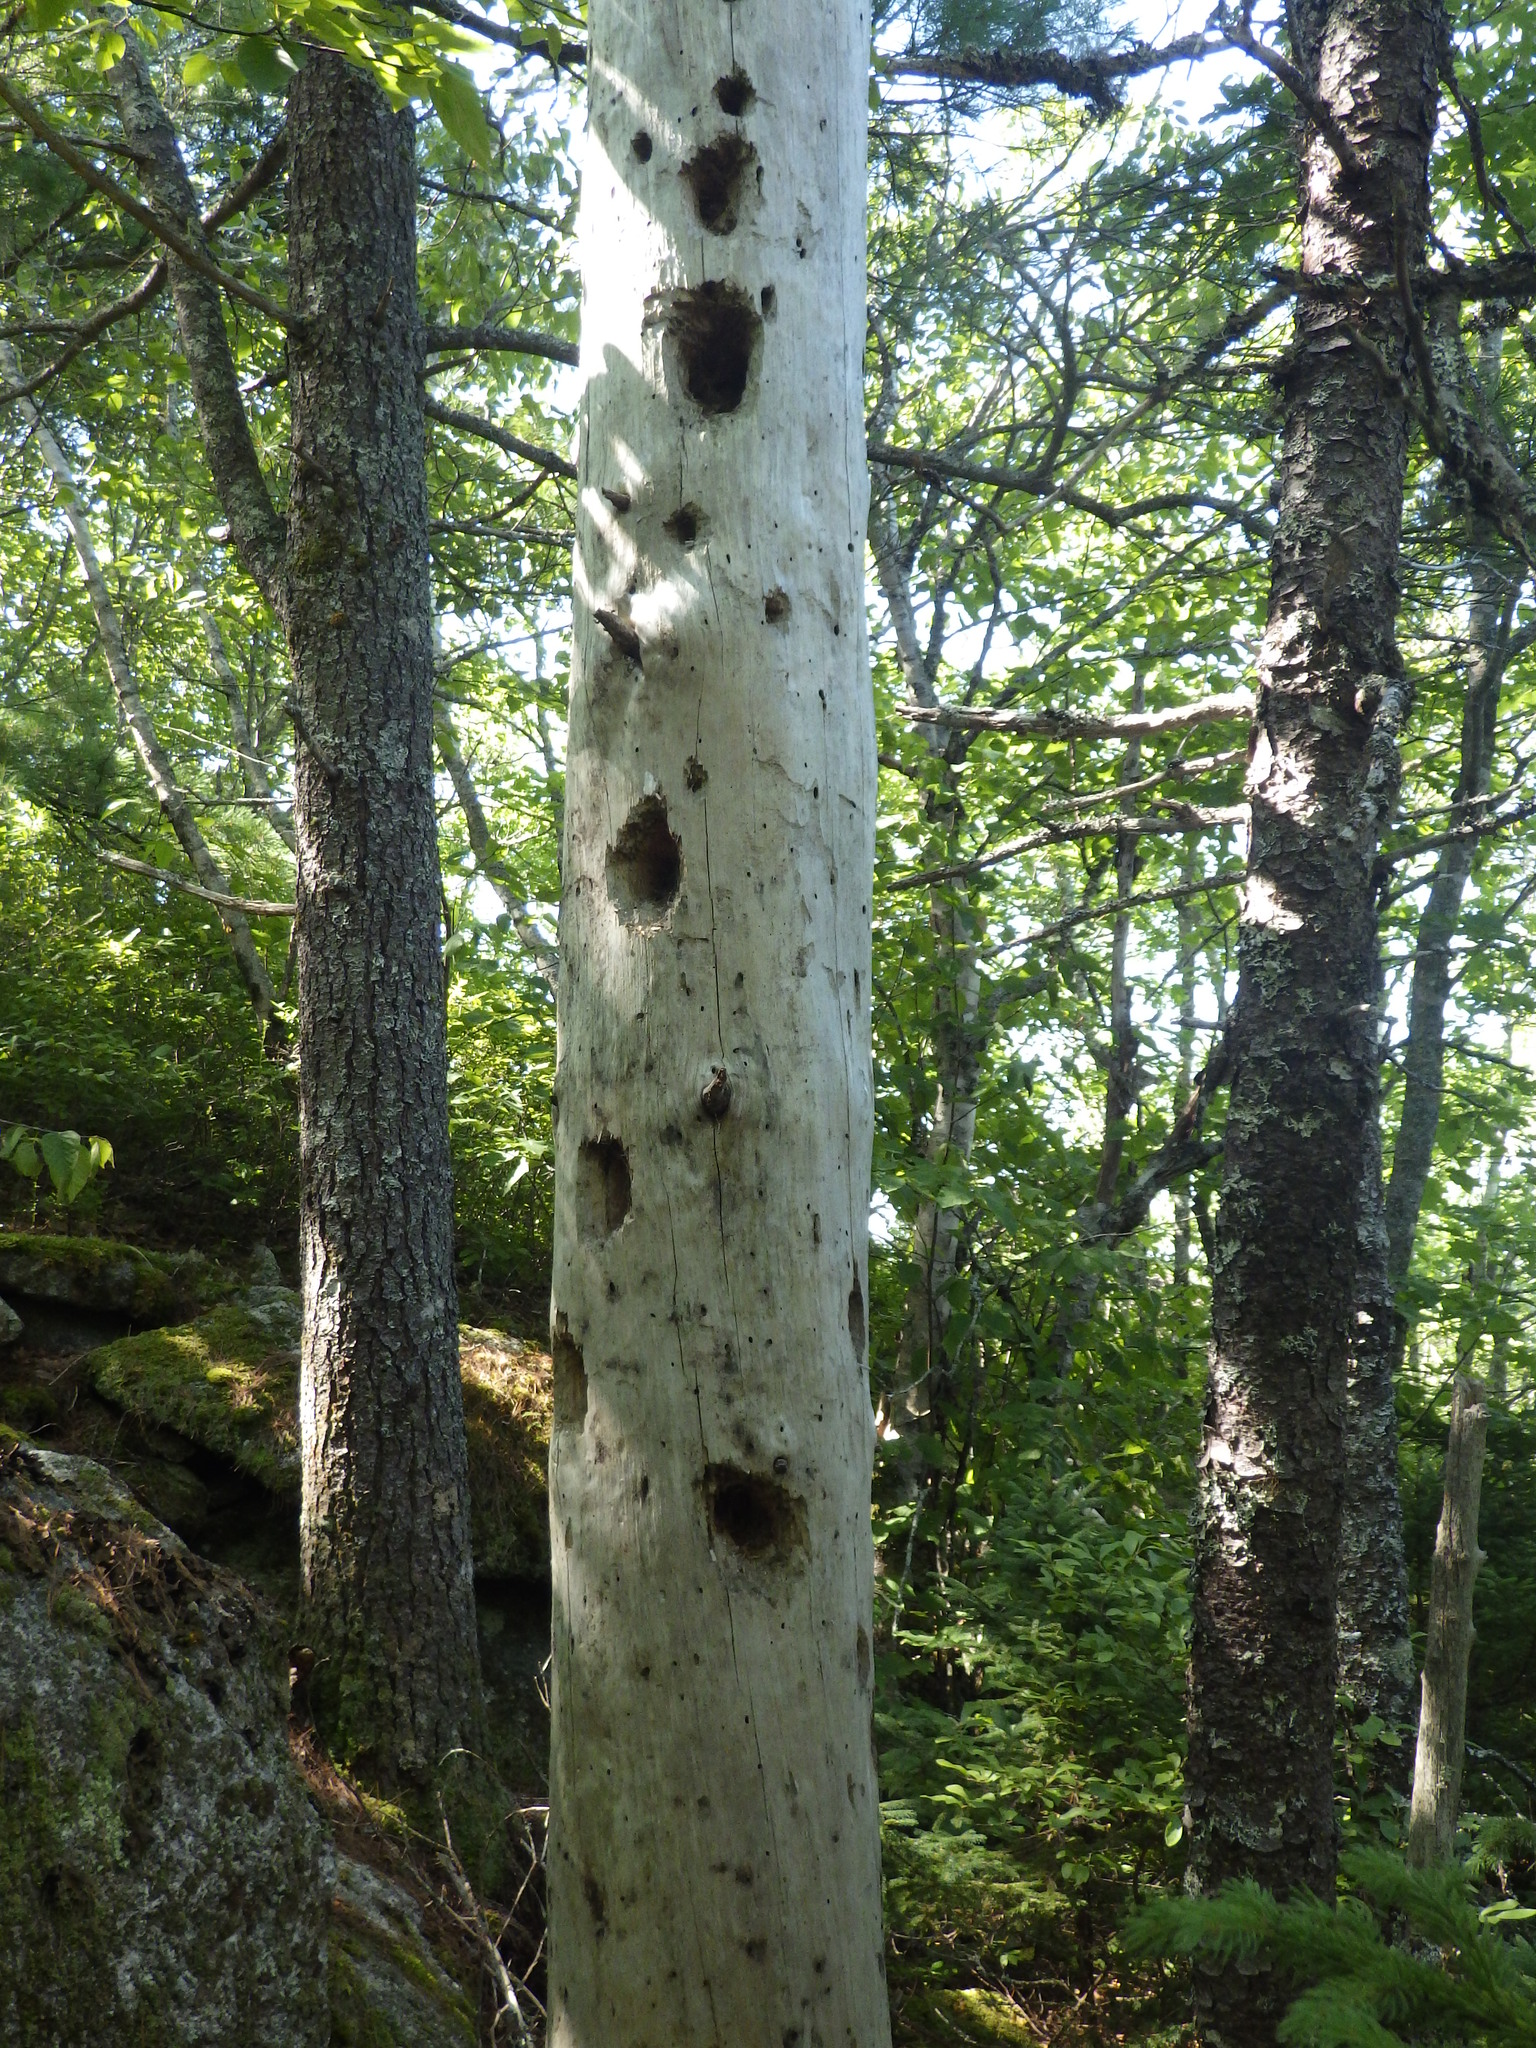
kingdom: Animalia
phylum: Chordata
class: Aves
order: Piciformes
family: Picidae
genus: Dryocopus
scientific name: Dryocopus pileatus
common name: Pileated woodpecker
